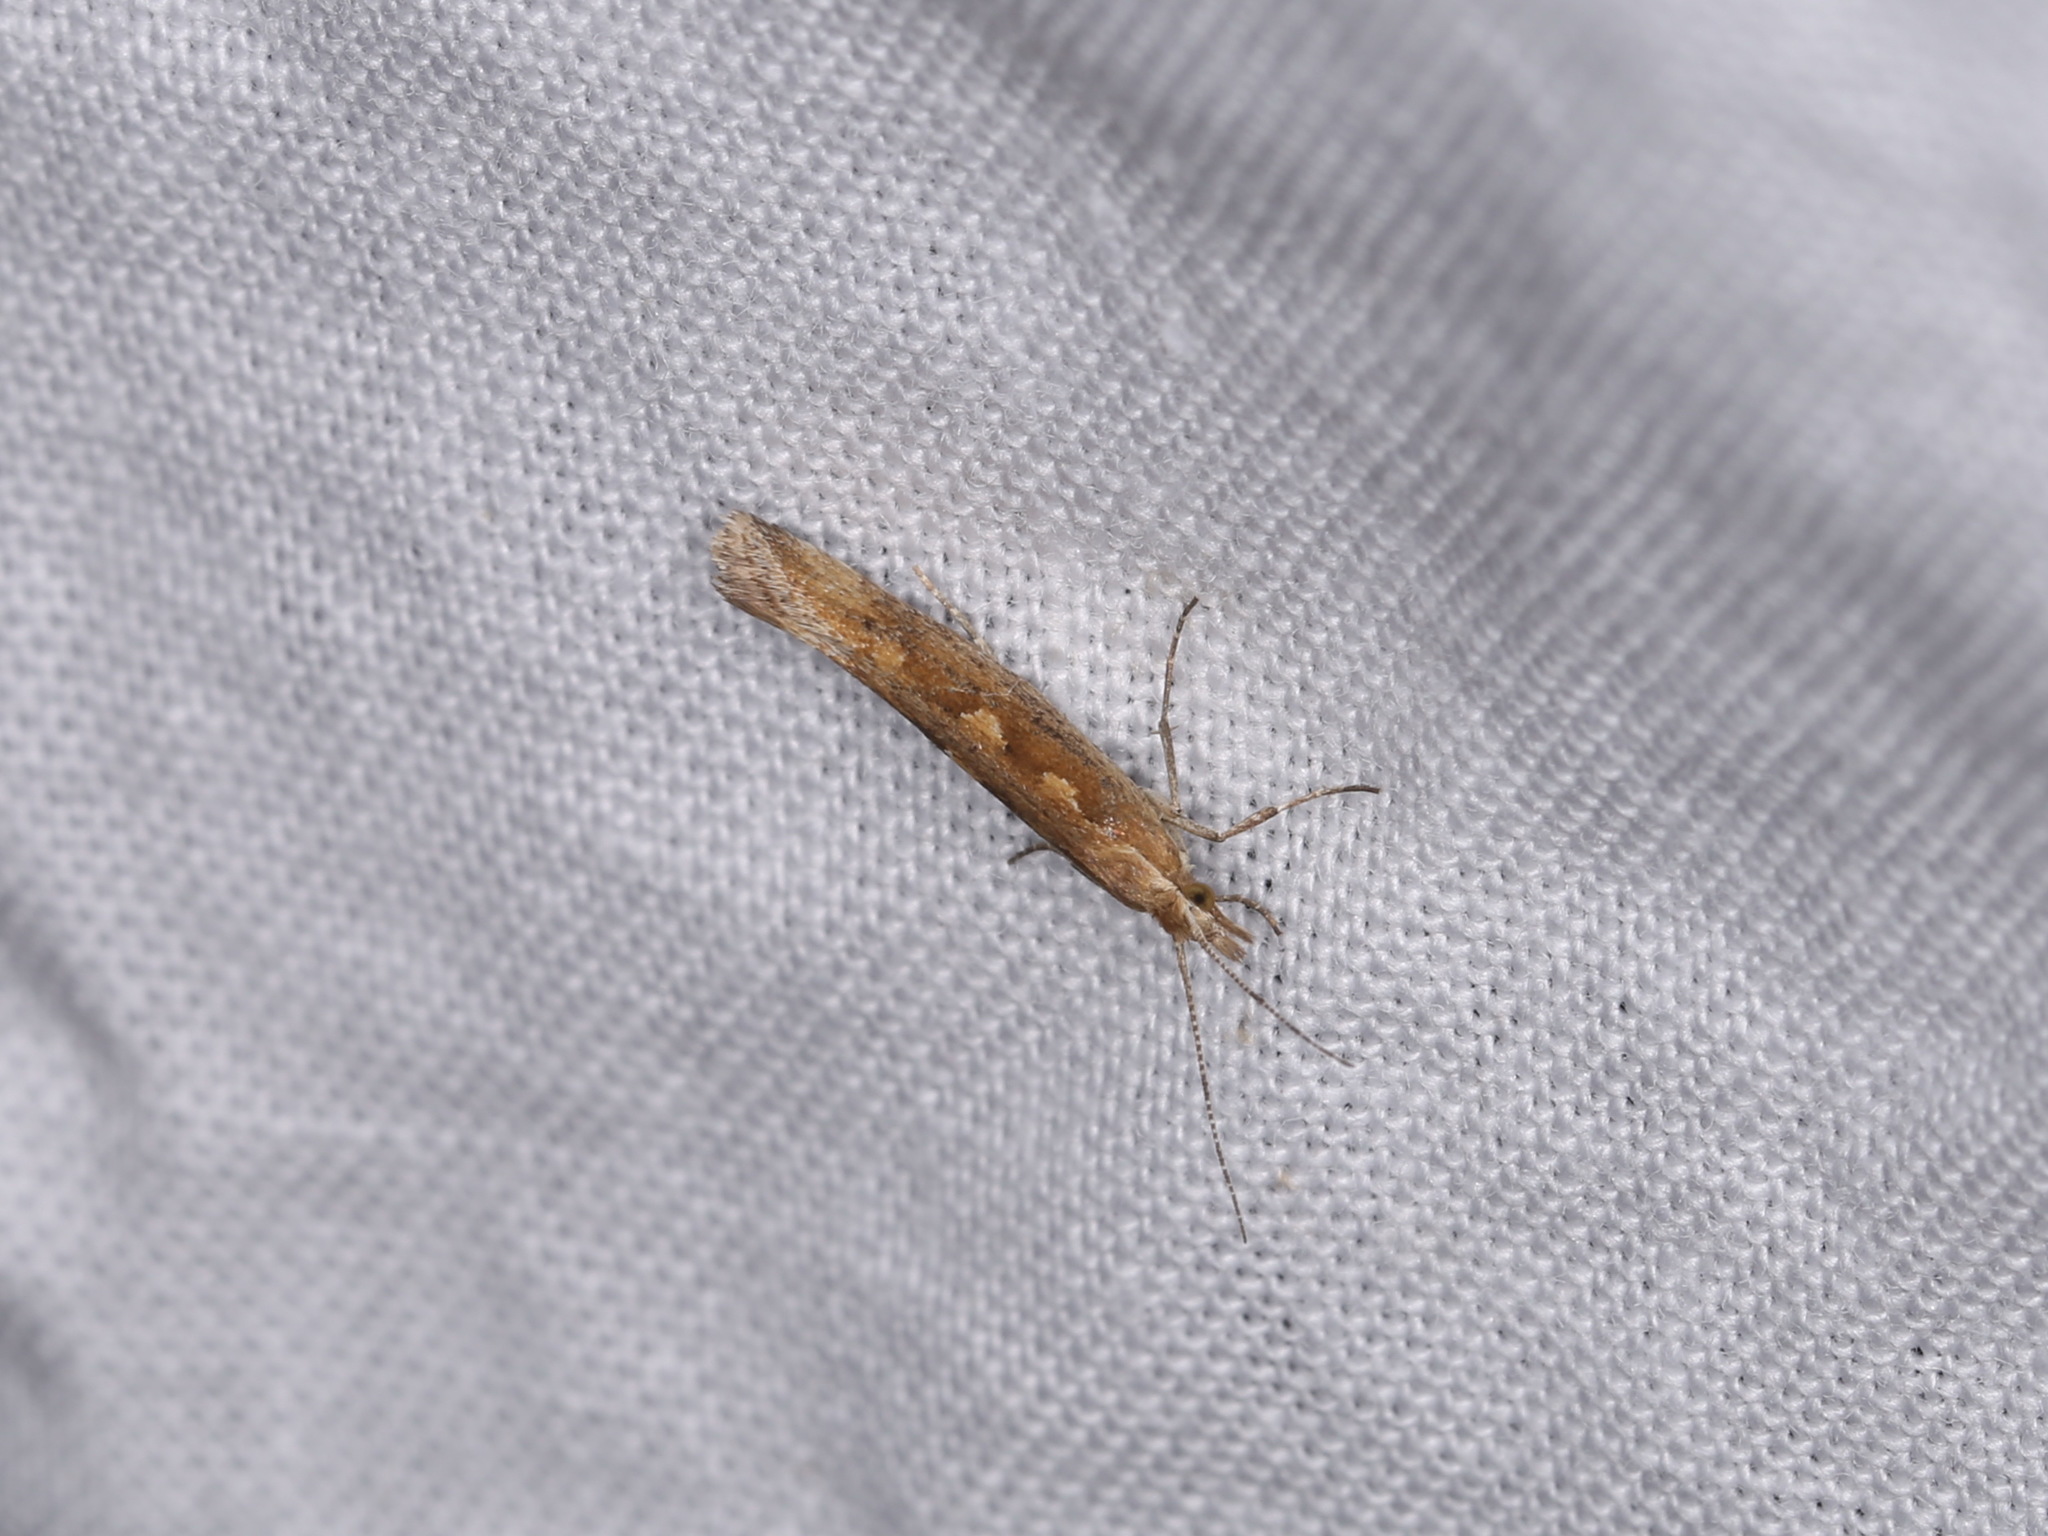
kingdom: Animalia
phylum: Arthropoda
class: Insecta
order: Lepidoptera
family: Plutellidae
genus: Plutella
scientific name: Plutella xylostella
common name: Diamond-back moth
